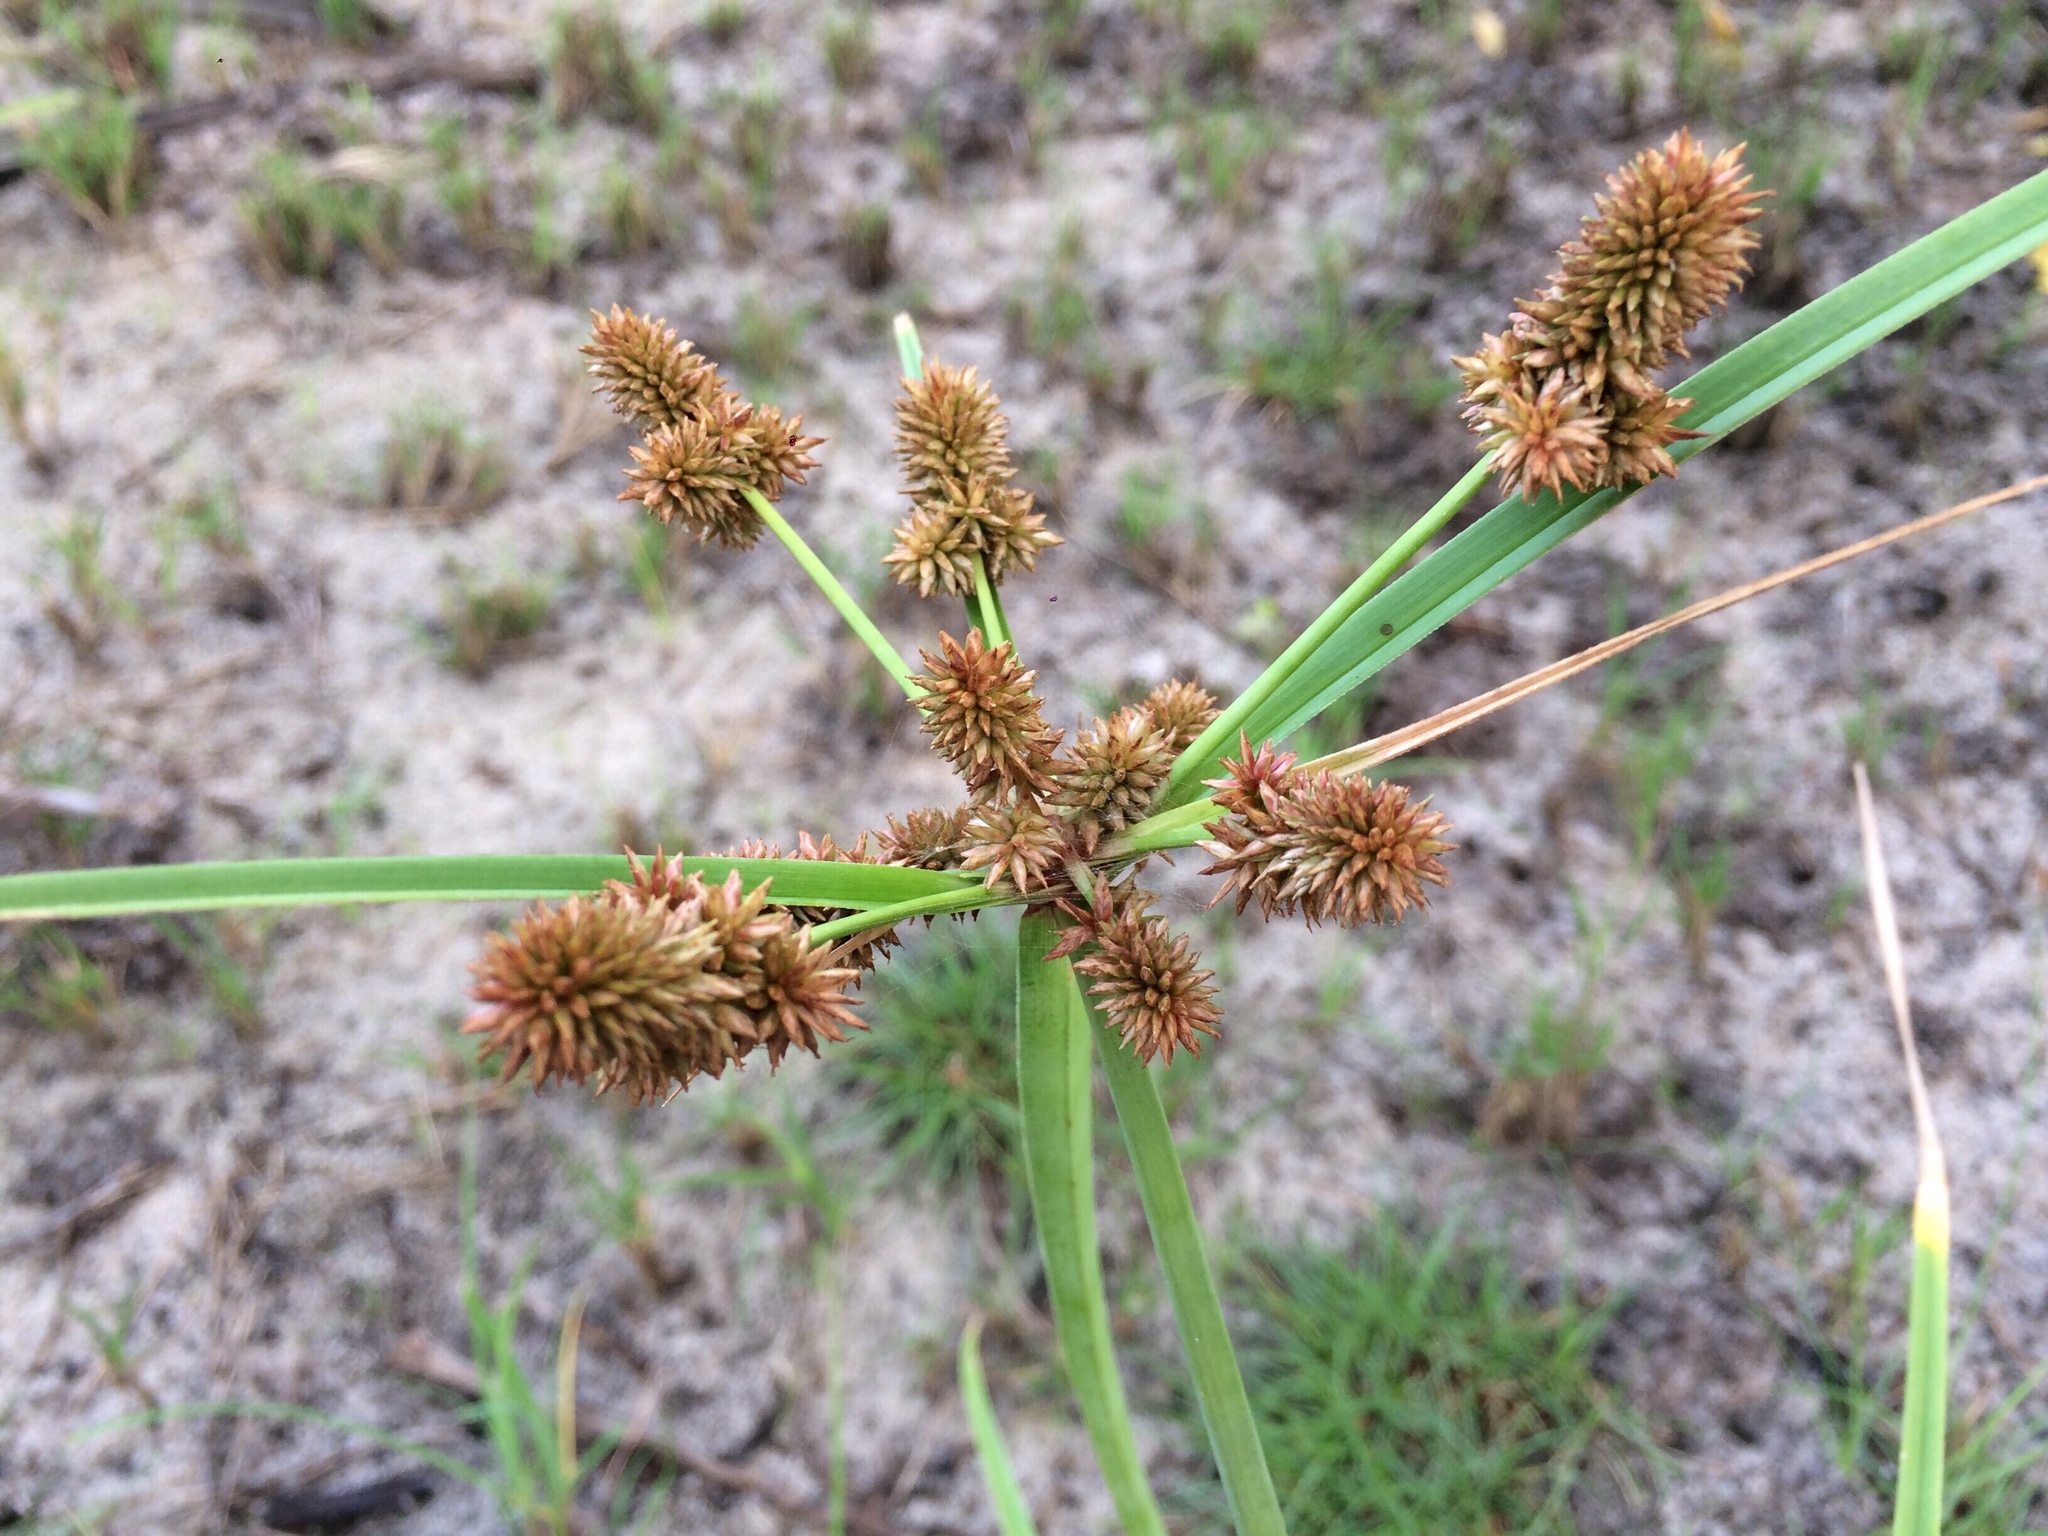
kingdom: Plantae
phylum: Tracheophyta
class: Liliopsida
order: Poales
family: Cyperaceae
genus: Cyperus
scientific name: Cyperus ligularis
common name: Swamp flat sedge
